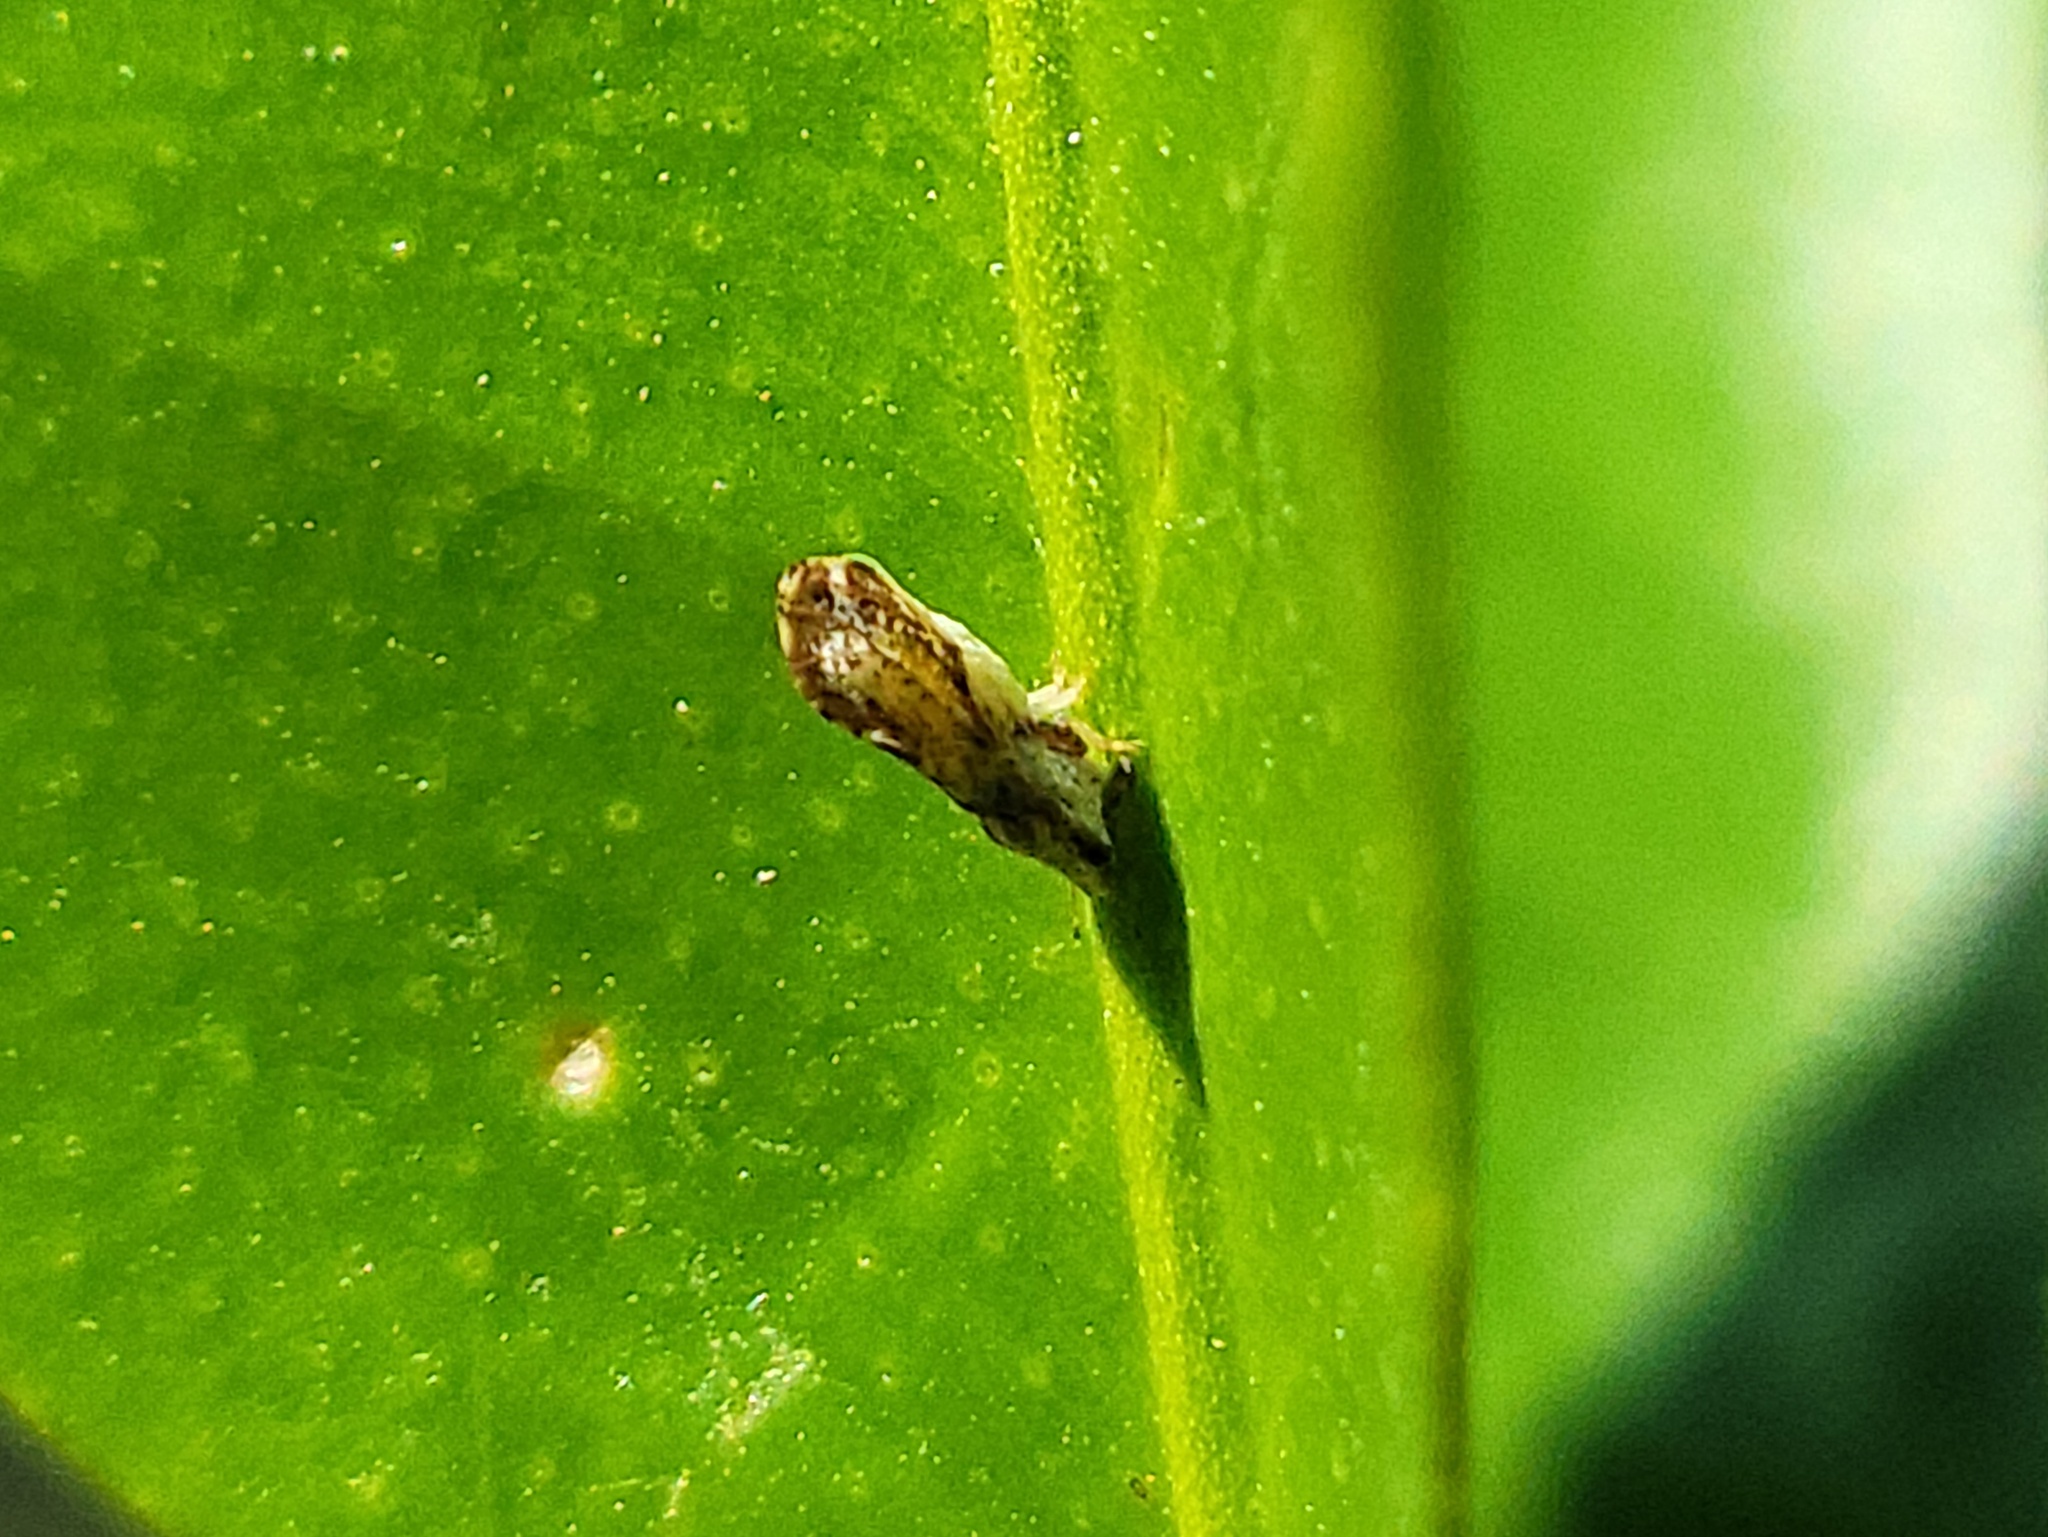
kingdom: Animalia
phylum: Arthropoda
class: Insecta
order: Hemiptera
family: Liviidae
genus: Diaphorina
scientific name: Diaphorina citri
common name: Asian citrus psyllid
